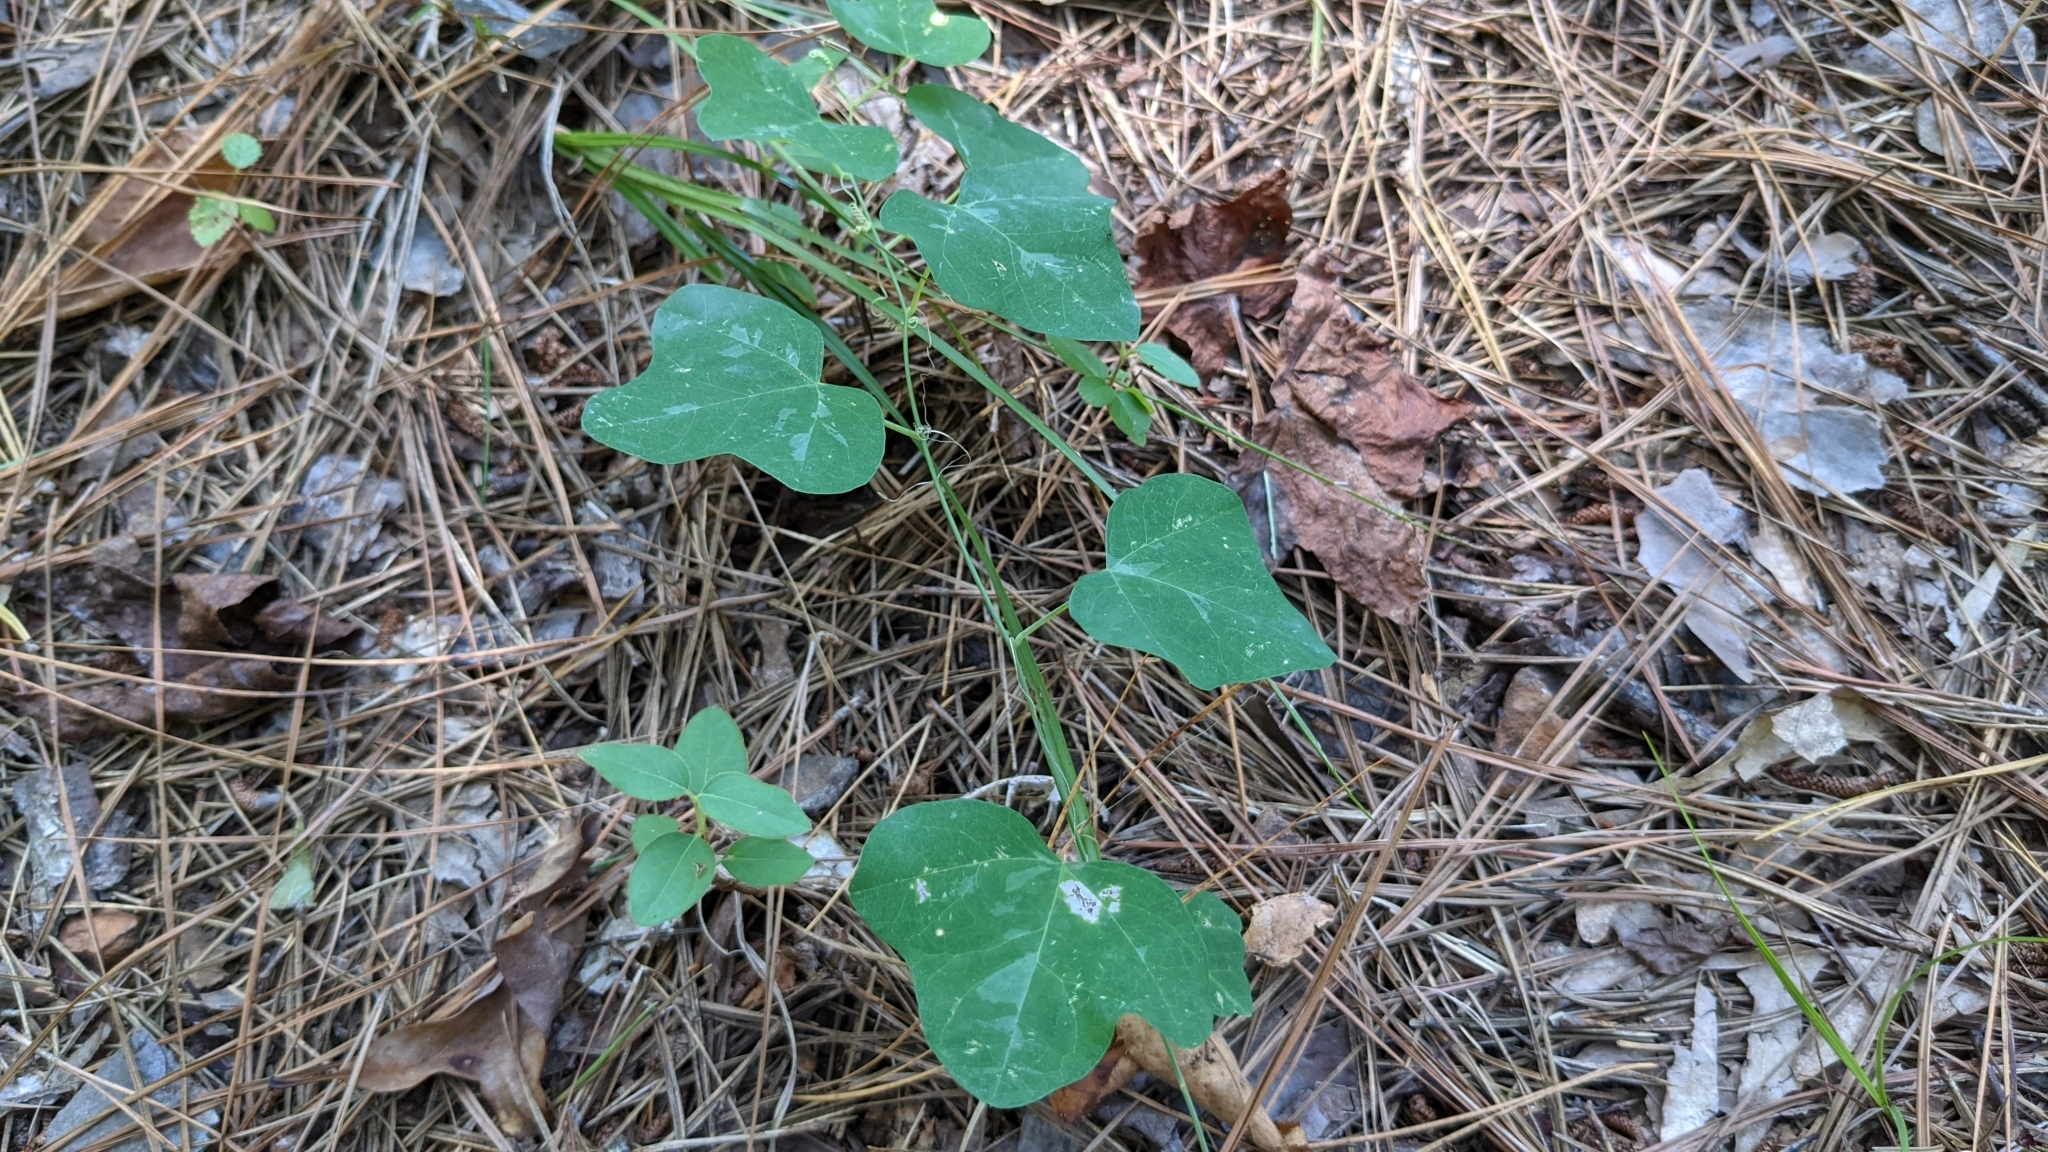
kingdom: Plantae
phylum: Tracheophyta
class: Magnoliopsida
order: Malpighiales
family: Passifloraceae
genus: Passiflora
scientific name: Passiflora lutea
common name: Yellow passionflower
